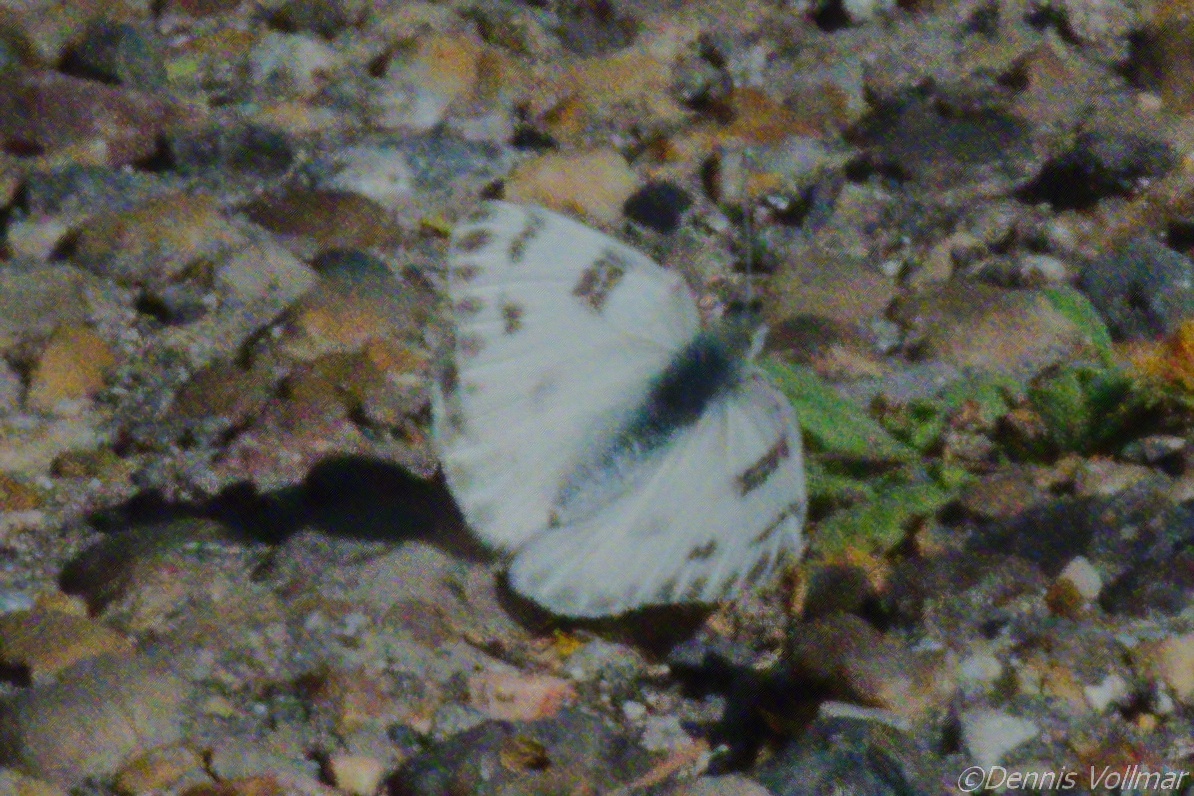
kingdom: Animalia
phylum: Arthropoda
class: Insecta
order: Lepidoptera
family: Pieridae
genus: Pontia
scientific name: Pontia protodice
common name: Checkered white
